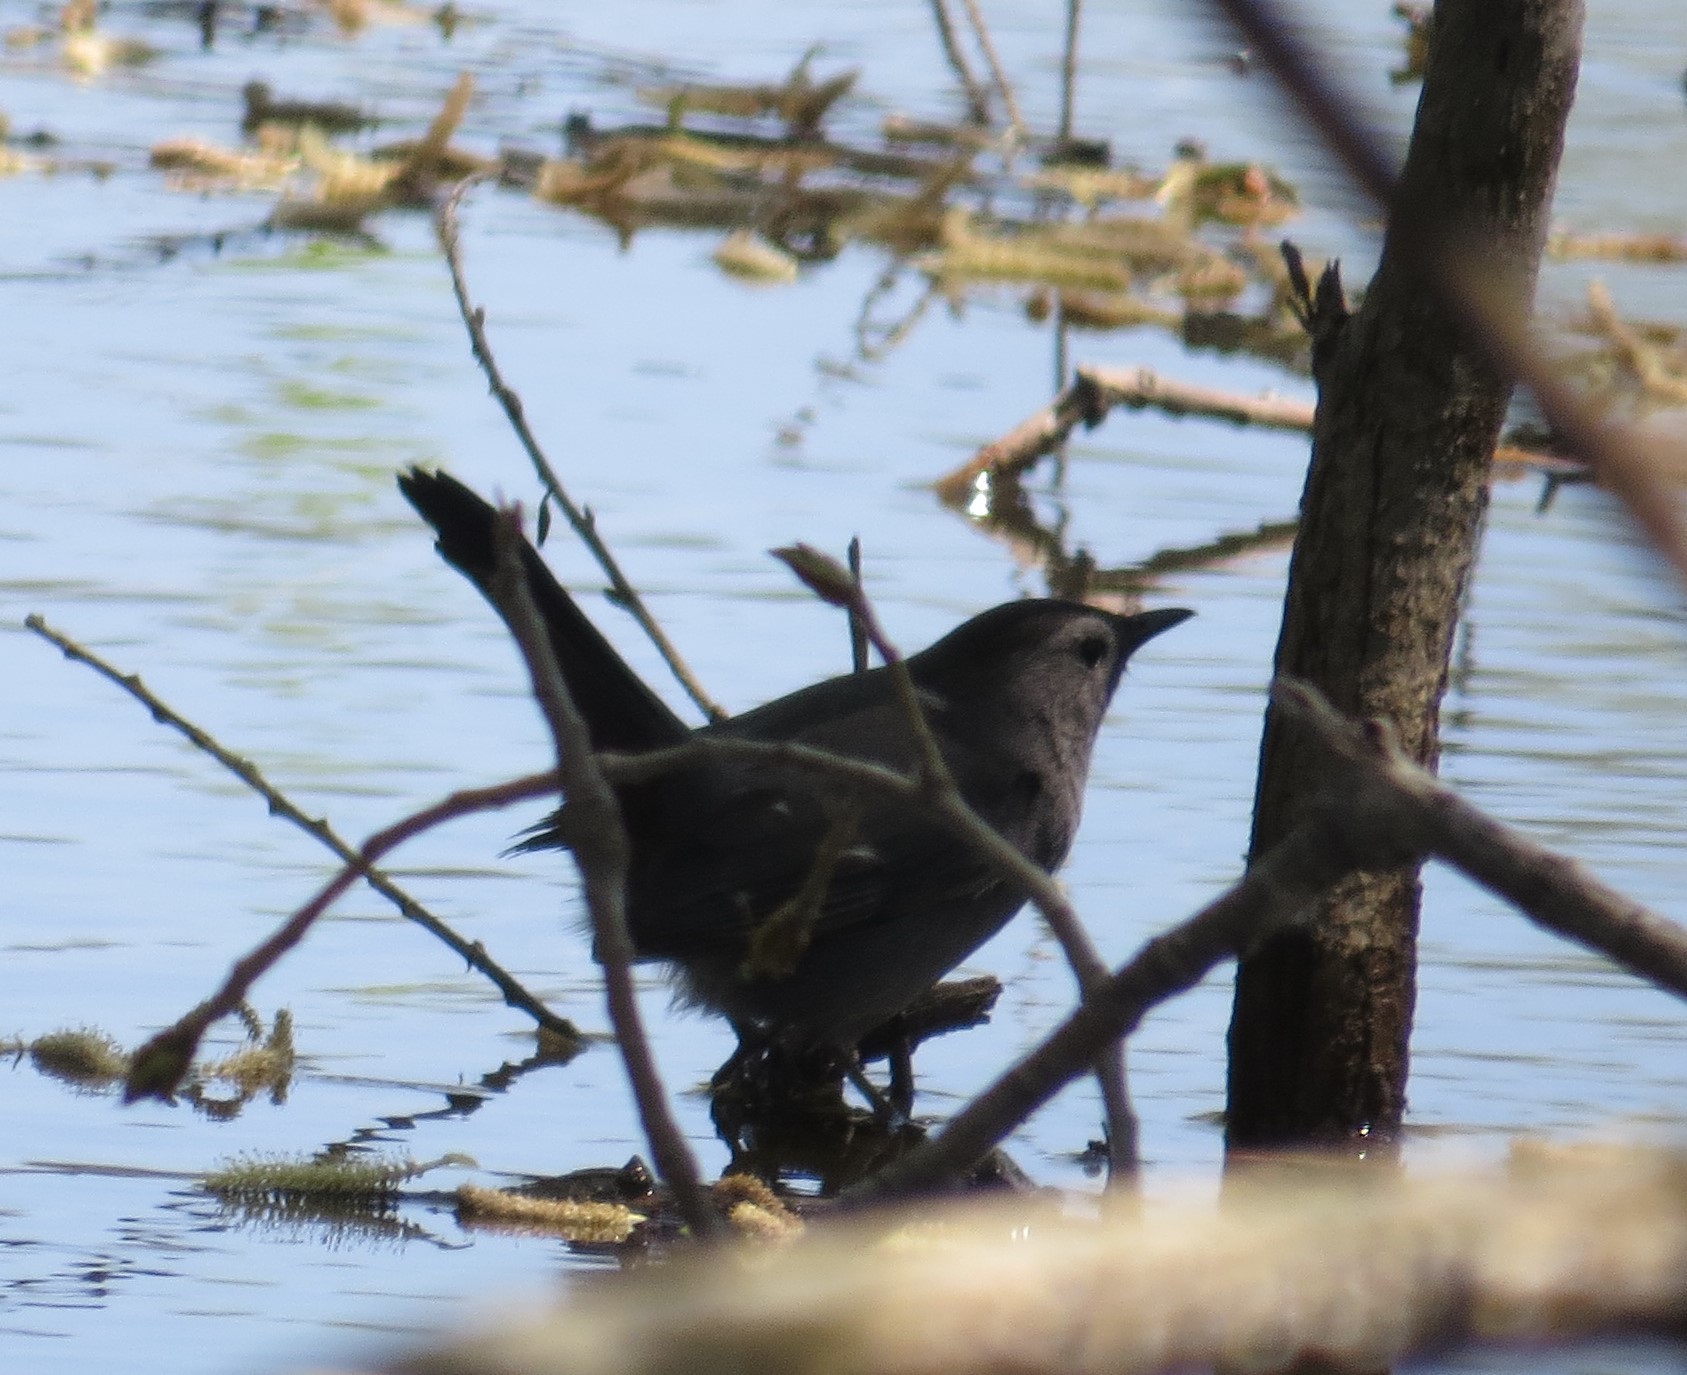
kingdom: Animalia
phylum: Chordata
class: Aves
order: Passeriformes
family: Mimidae
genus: Dumetella
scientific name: Dumetella carolinensis
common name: Gray catbird
